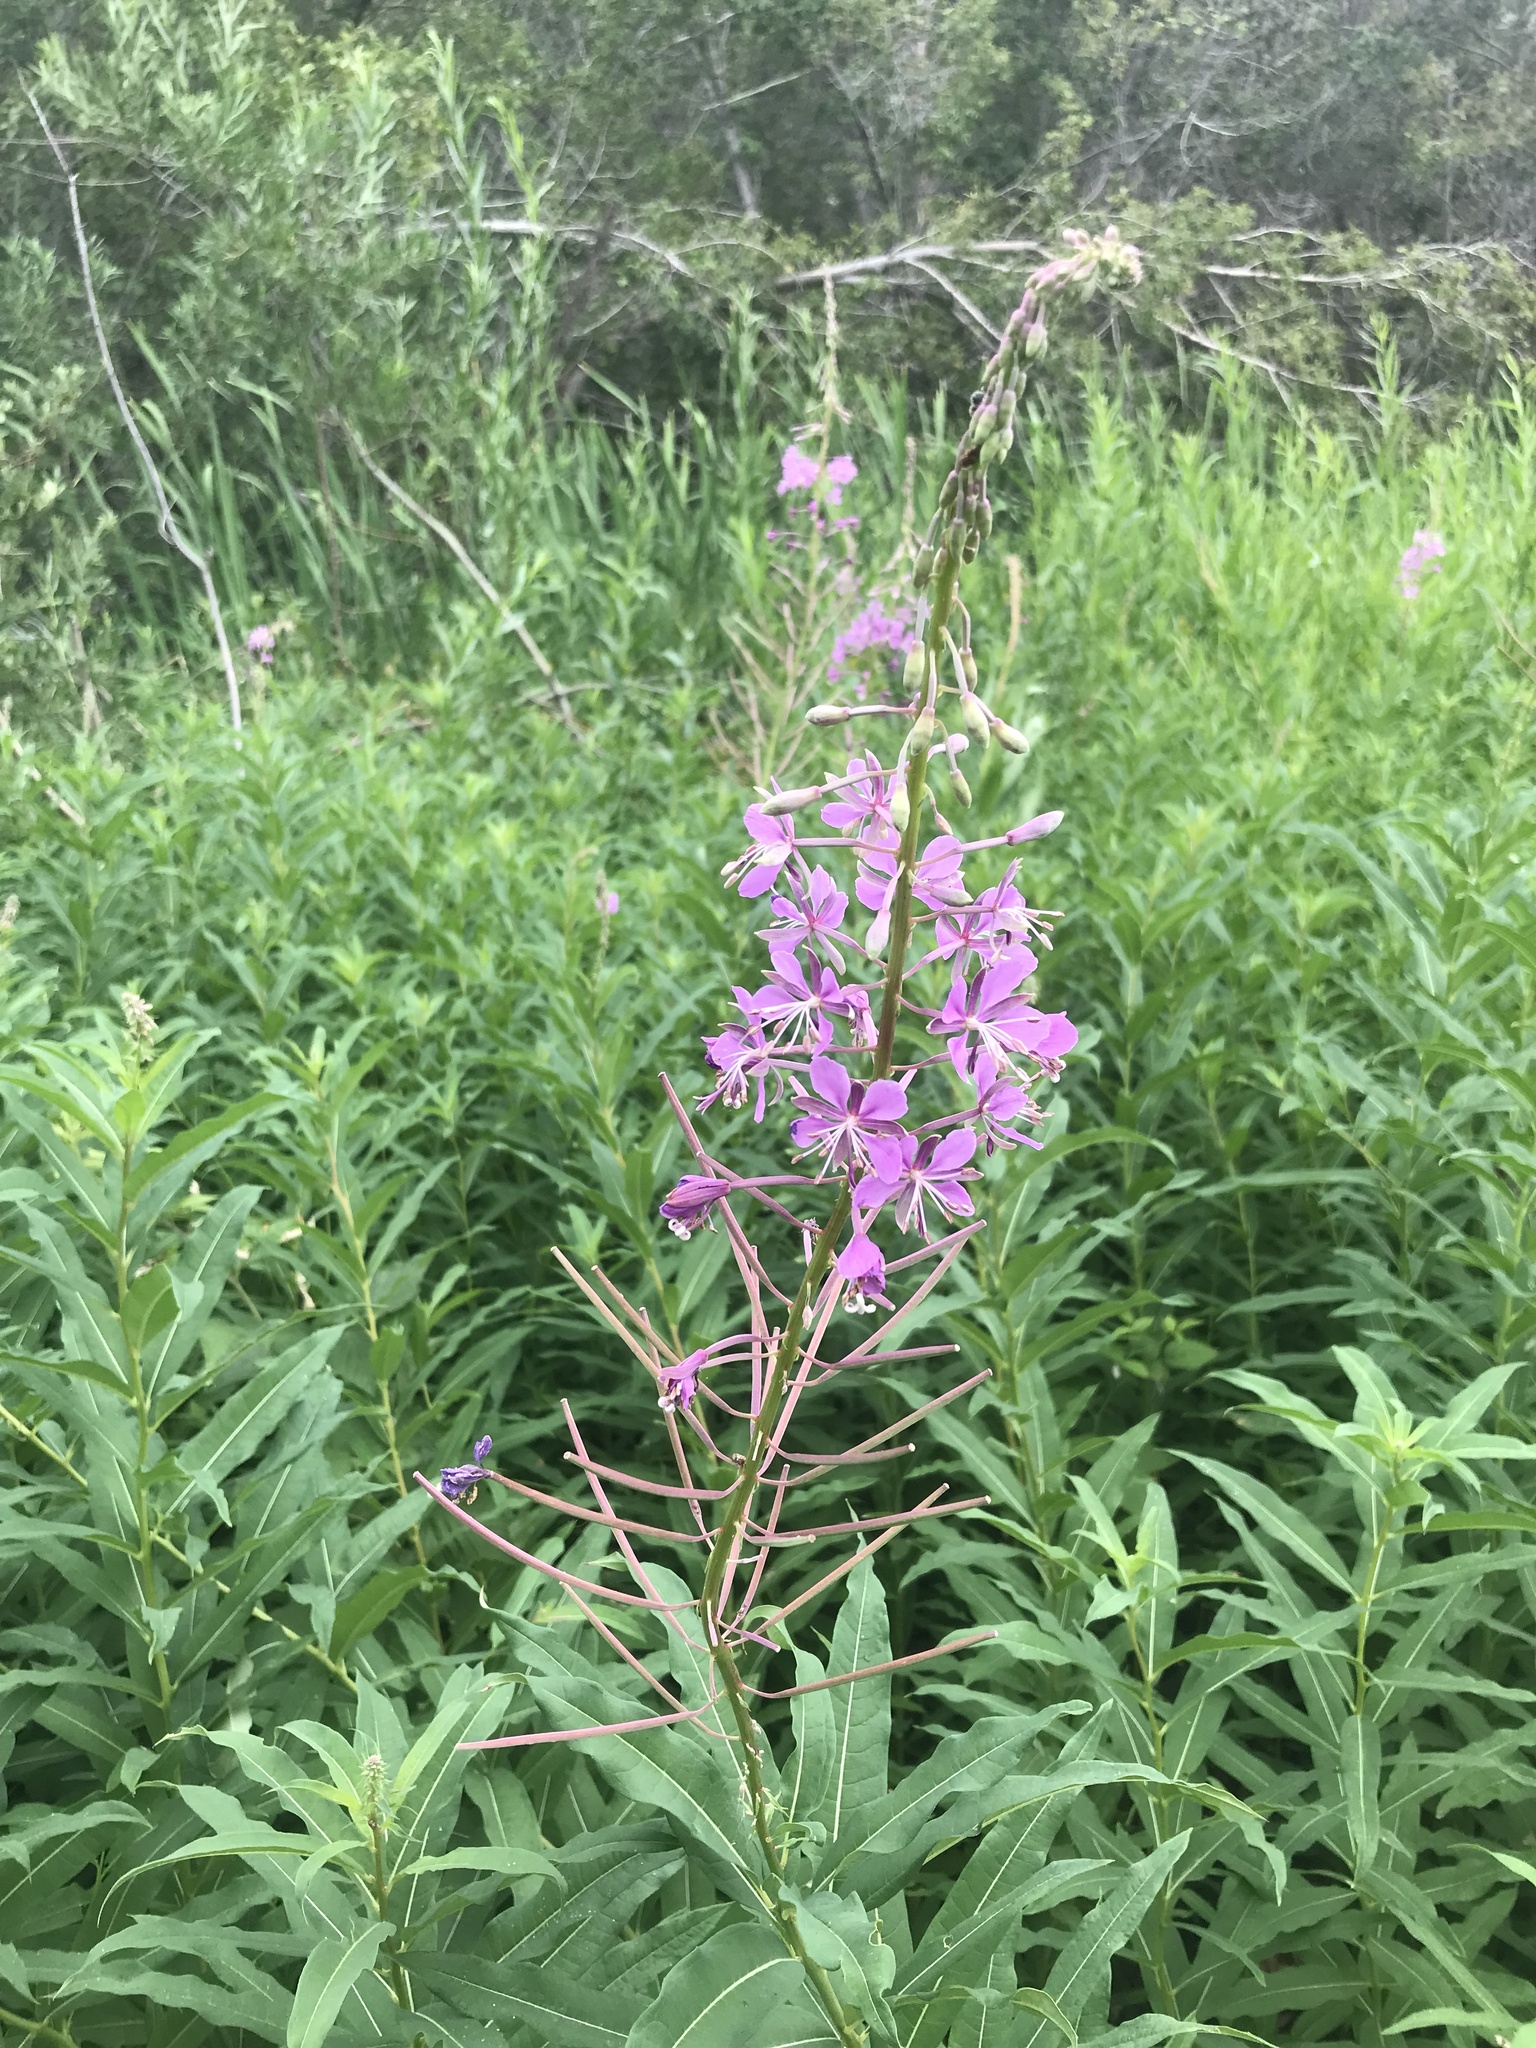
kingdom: Plantae
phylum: Tracheophyta
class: Magnoliopsida
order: Myrtales
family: Onagraceae
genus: Chamaenerion
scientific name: Chamaenerion angustifolium
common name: Fireweed
